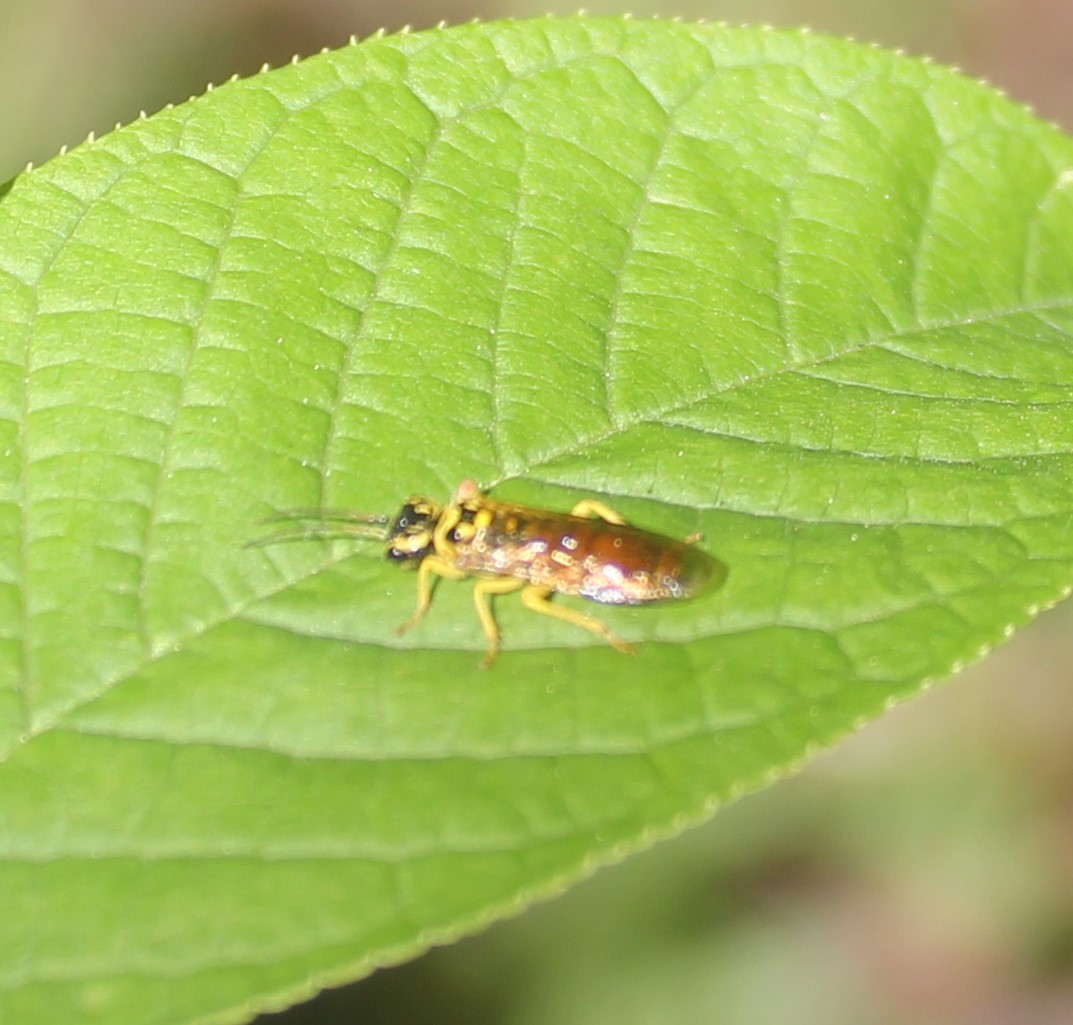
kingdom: Animalia
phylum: Arthropoda
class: Insecta
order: Hymenoptera
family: Pamphiliidae
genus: Pamphilius
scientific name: Pamphilius
